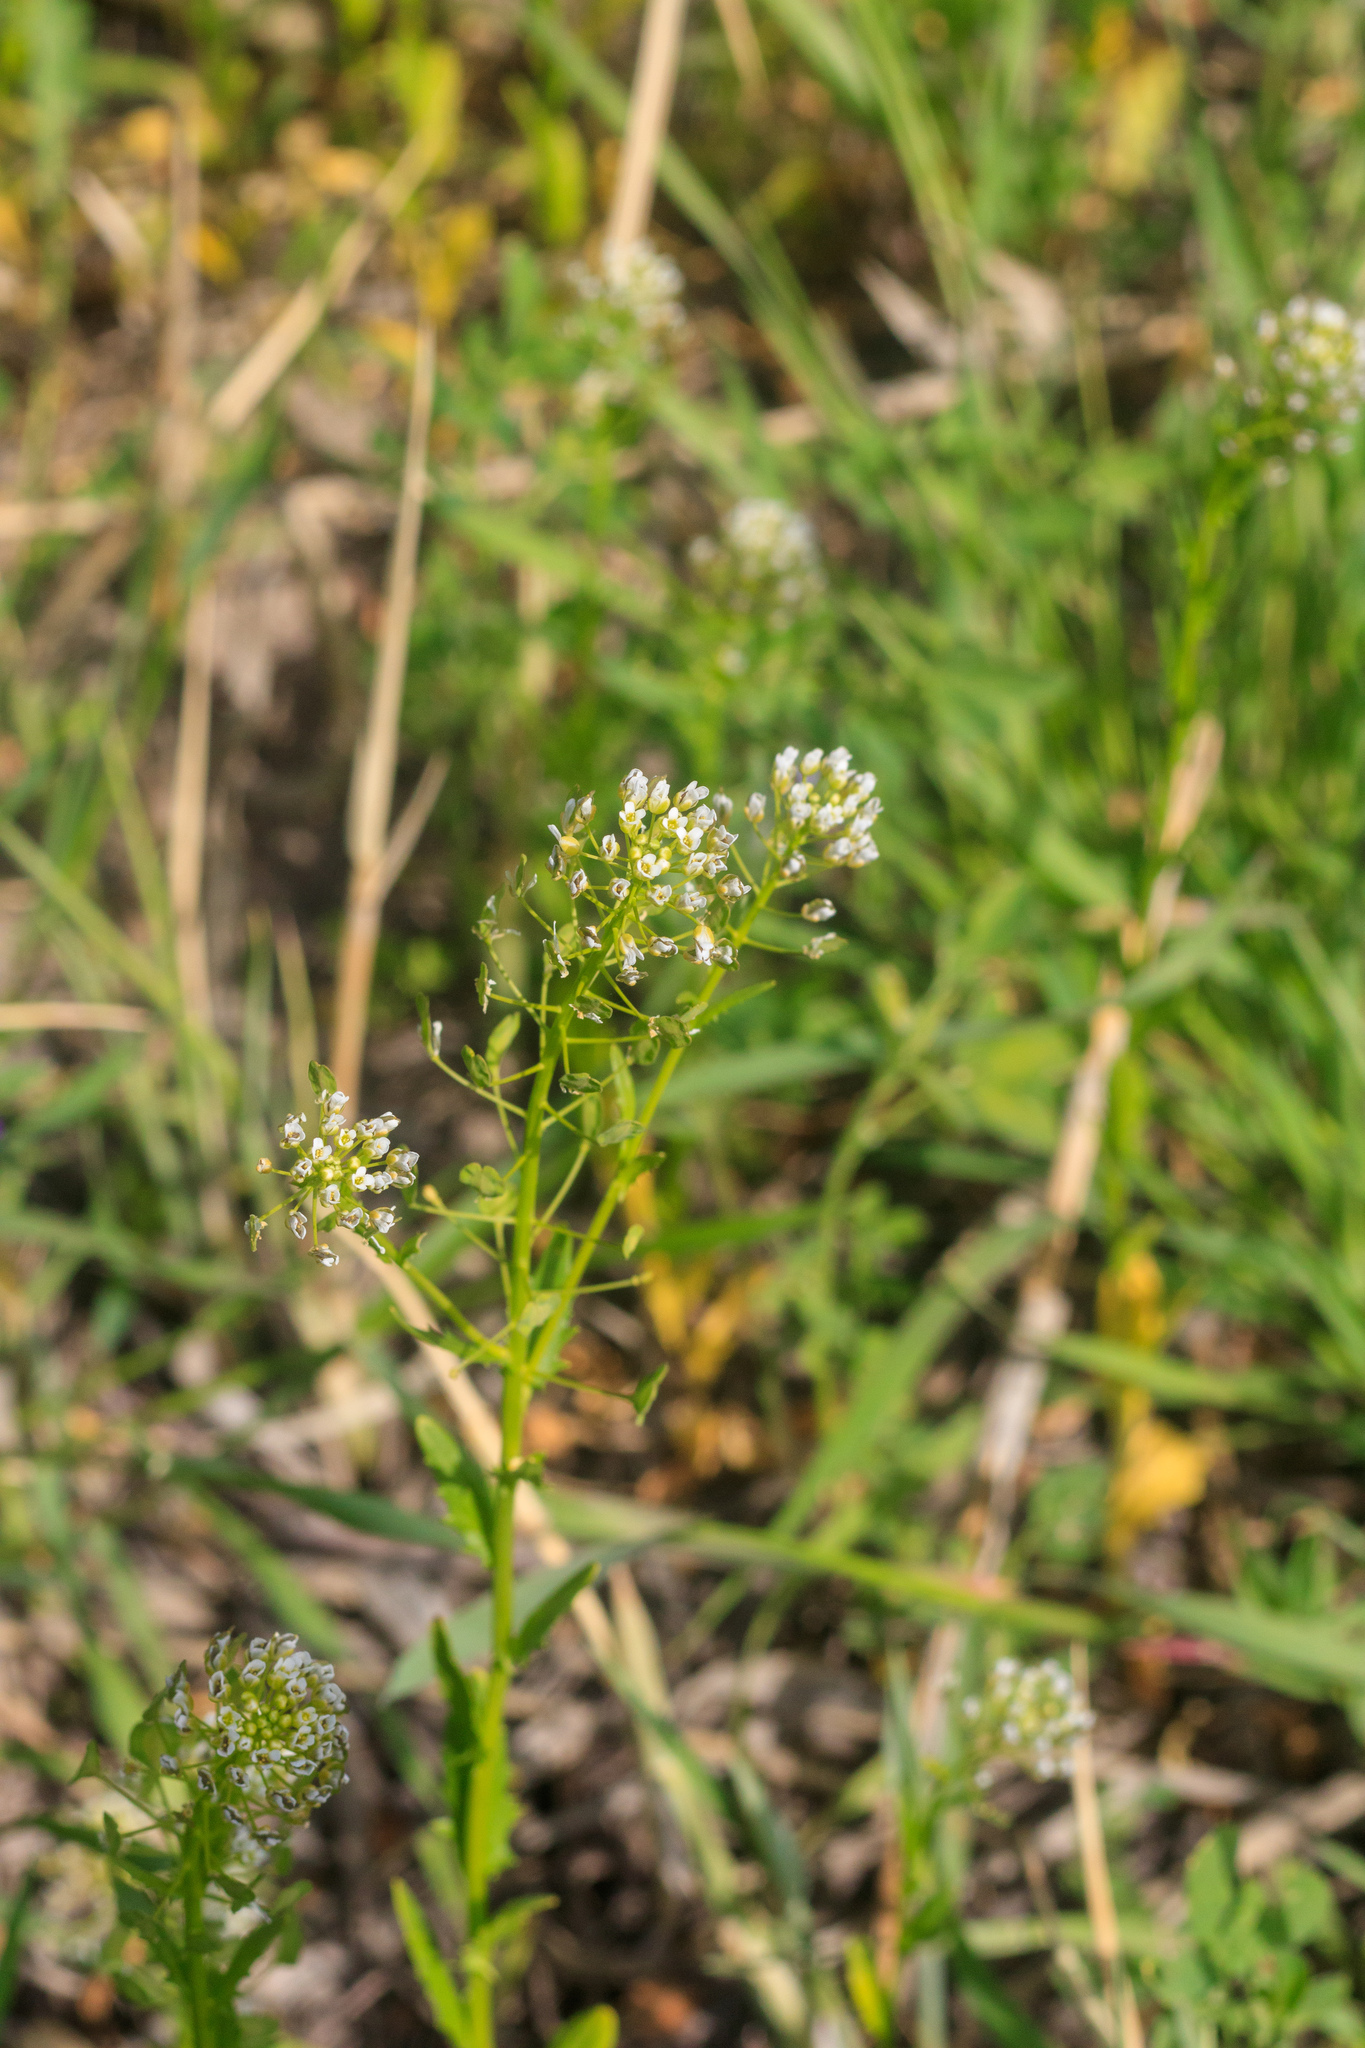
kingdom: Plantae
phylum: Tracheophyta
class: Magnoliopsida
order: Brassicales
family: Brassicaceae
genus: Thlaspi
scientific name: Thlaspi arvense
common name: Field pennycress
